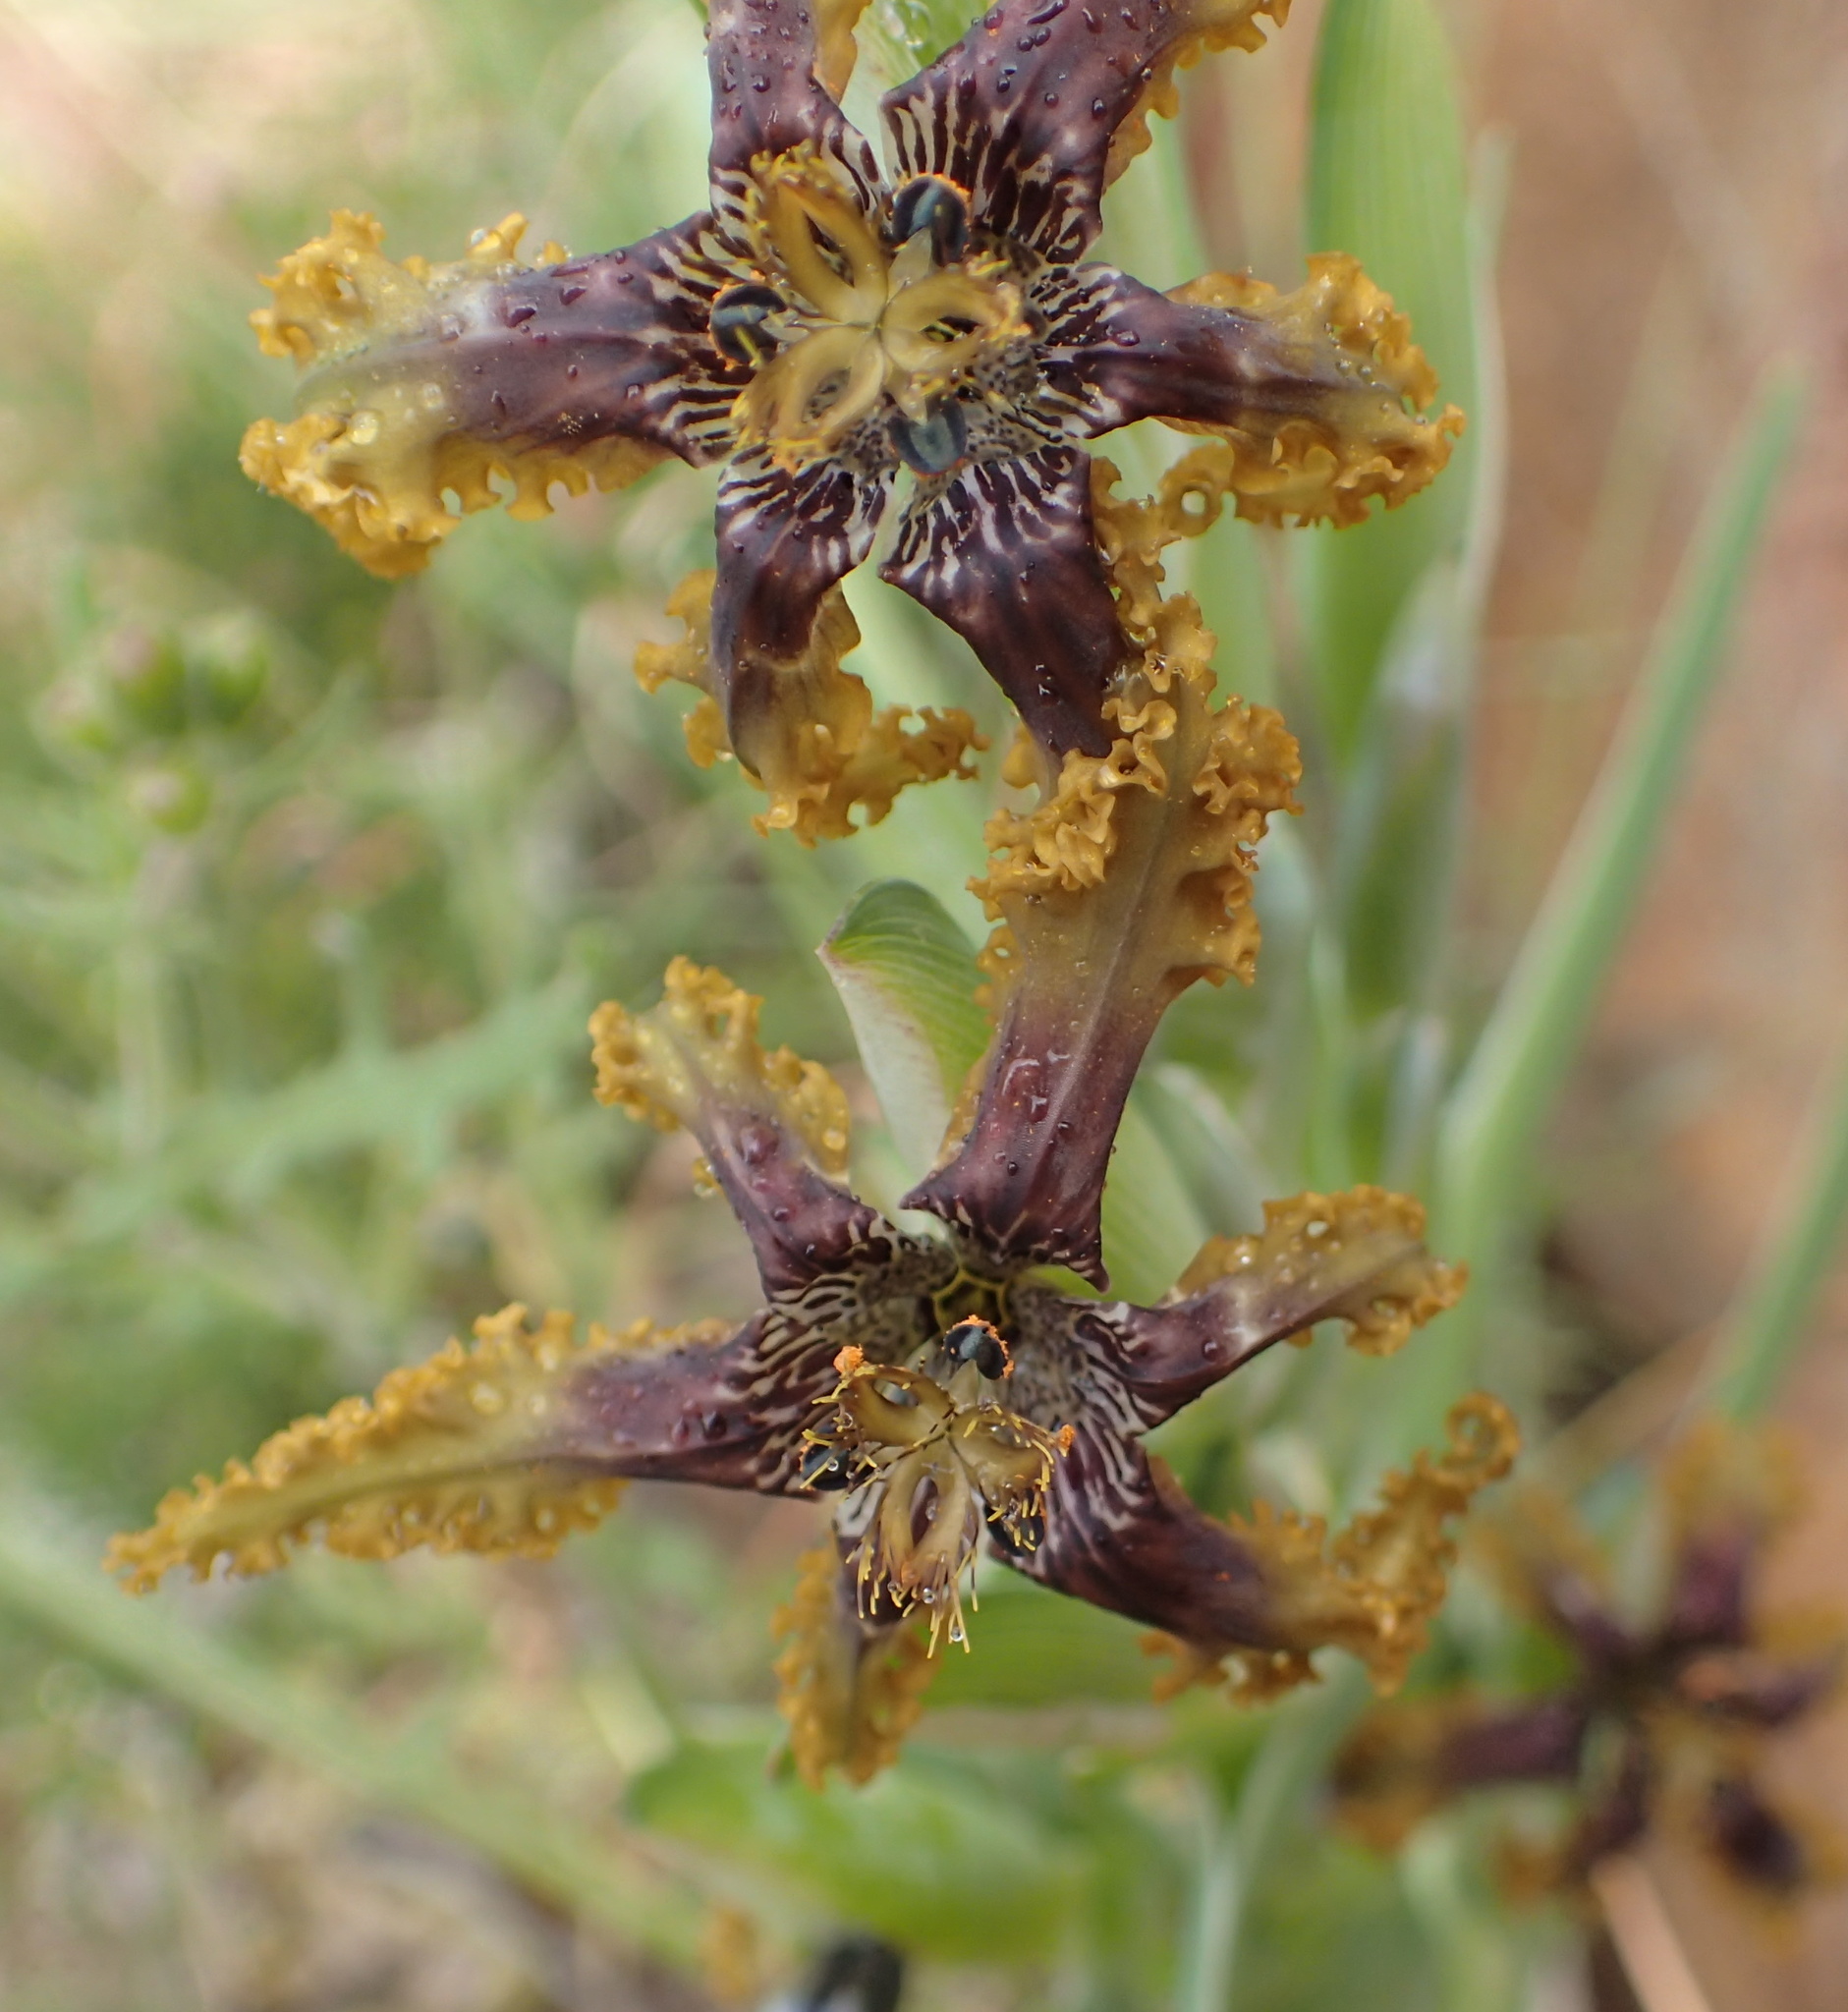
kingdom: Plantae
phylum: Tracheophyta
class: Liliopsida
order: Asparagales
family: Iridaceae
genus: Ferraria
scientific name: Ferraria crispa
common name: Black-flag
